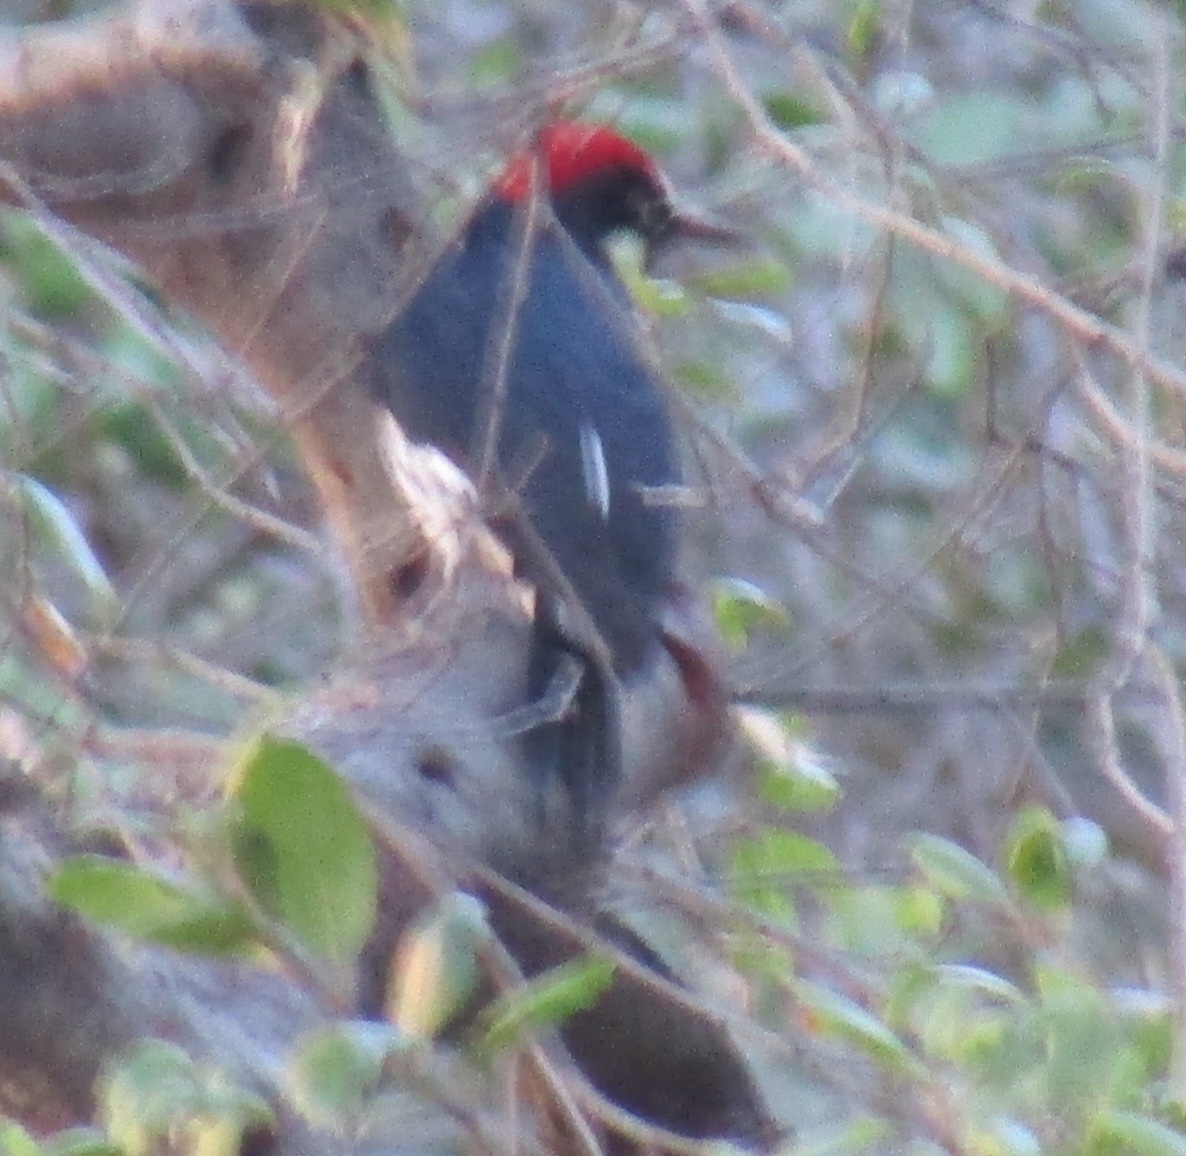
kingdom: Animalia
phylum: Chordata
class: Aves
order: Piciformes
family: Picidae
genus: Melanerpes
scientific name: Melanerpes formicivorus
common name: Acorn woodpecker
